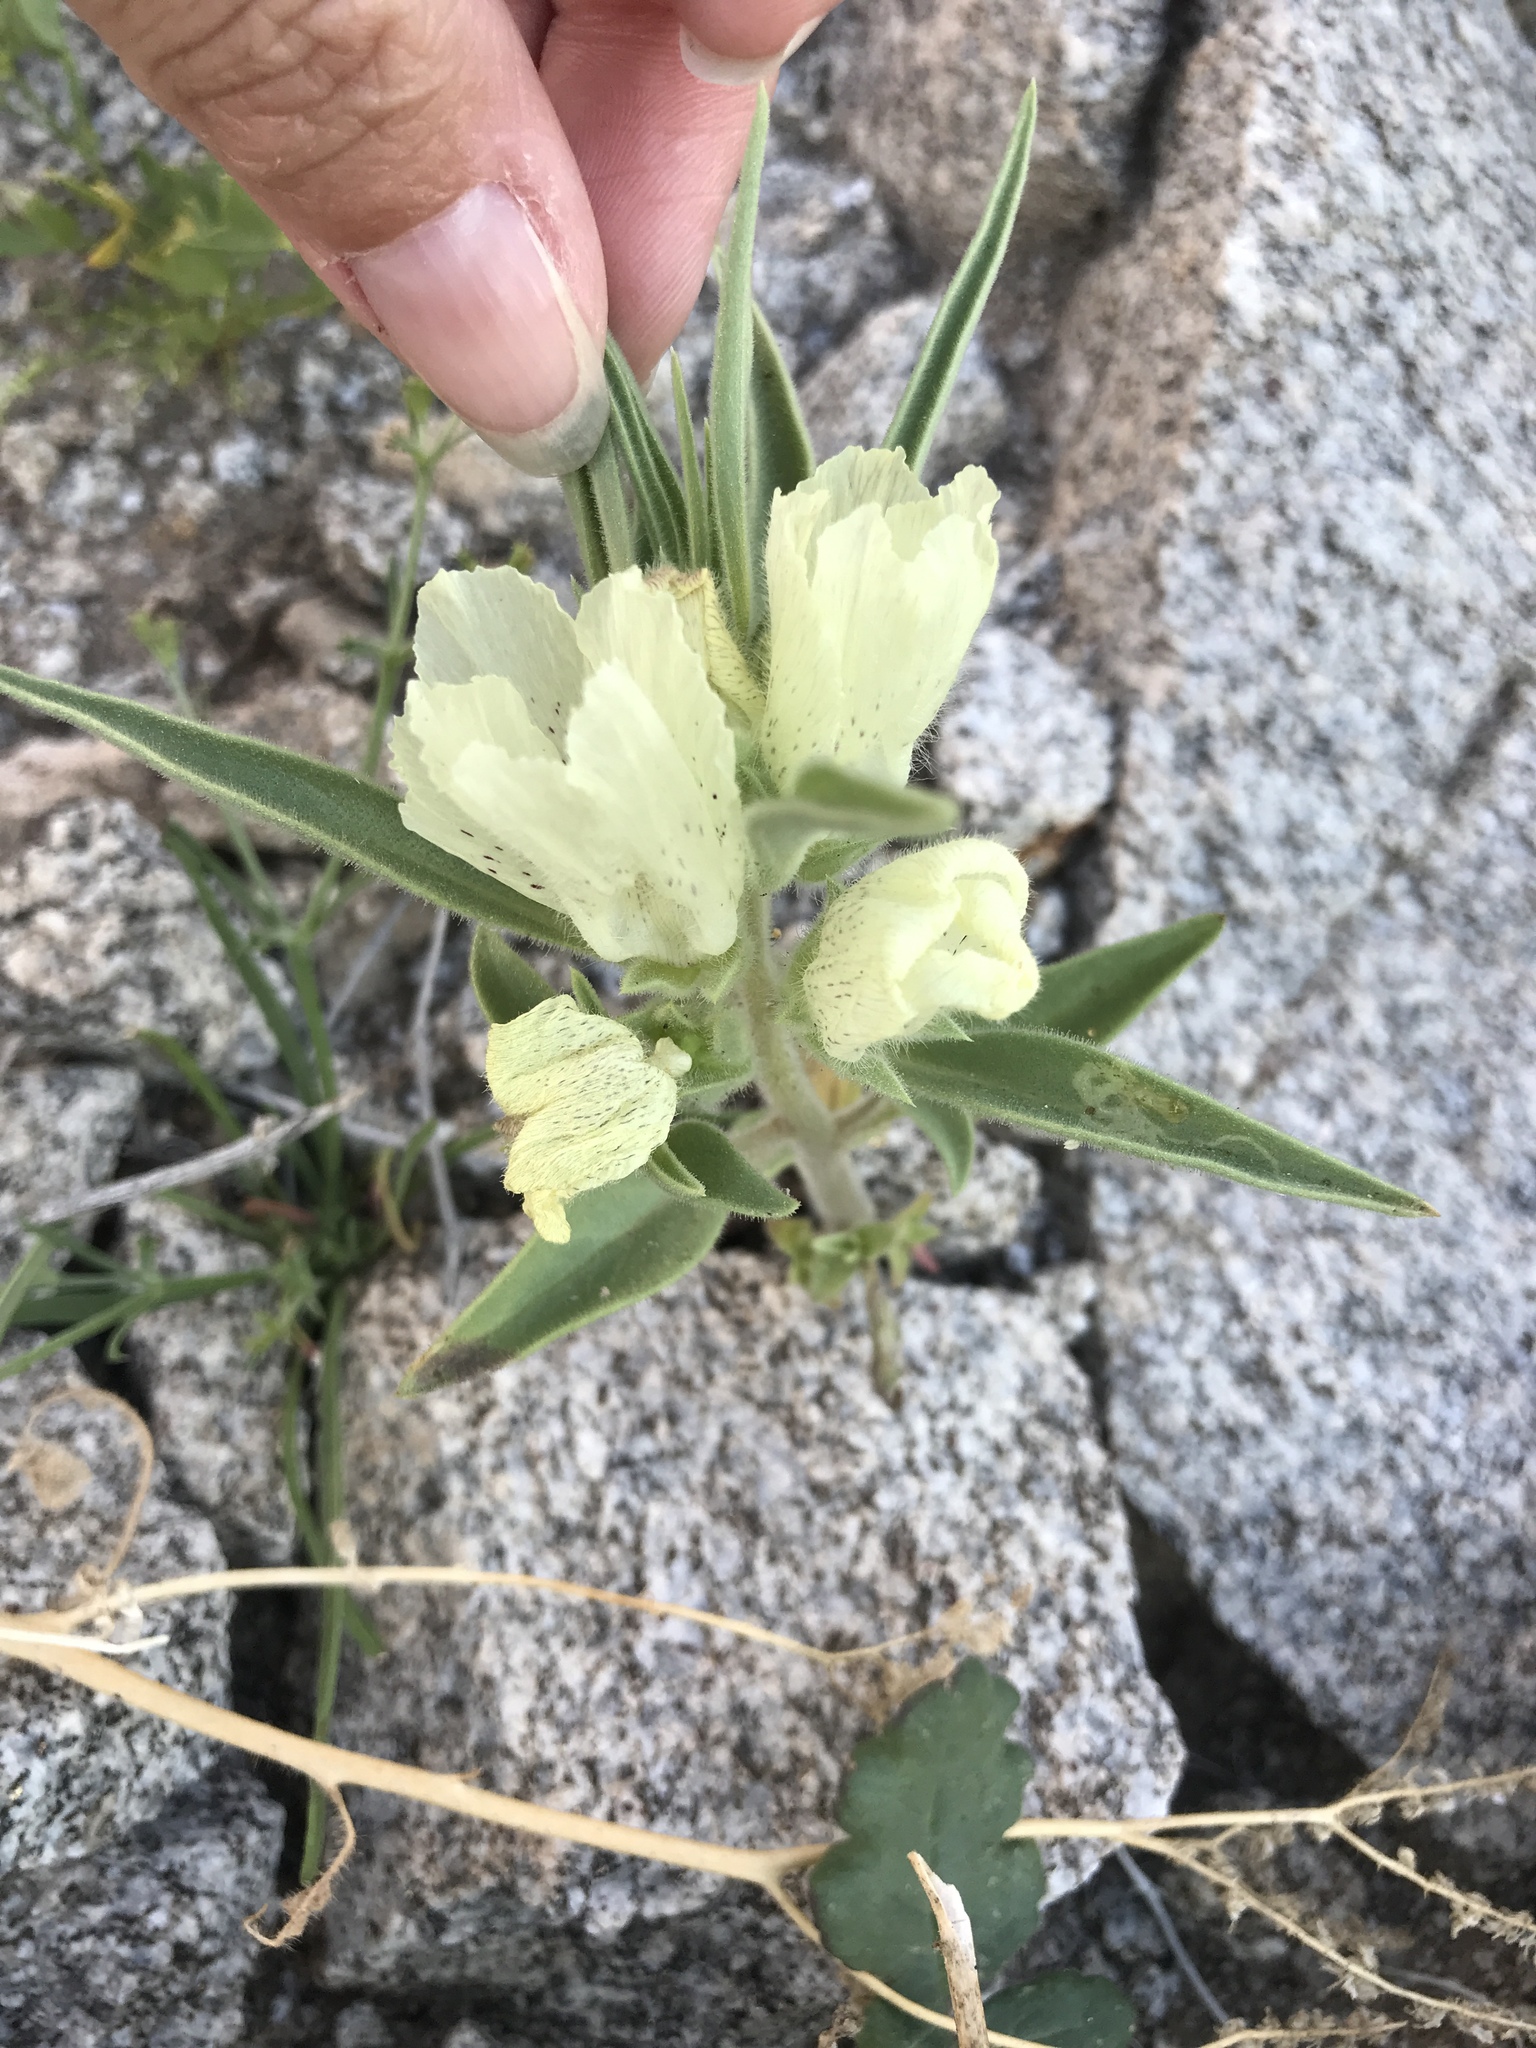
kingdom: Plantae
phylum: Tracheophyta
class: Magnoliopsida
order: Lamiales
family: Plantaginaceae
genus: Mohavea
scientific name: Mohavea confertiflora
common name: Ghost flower
